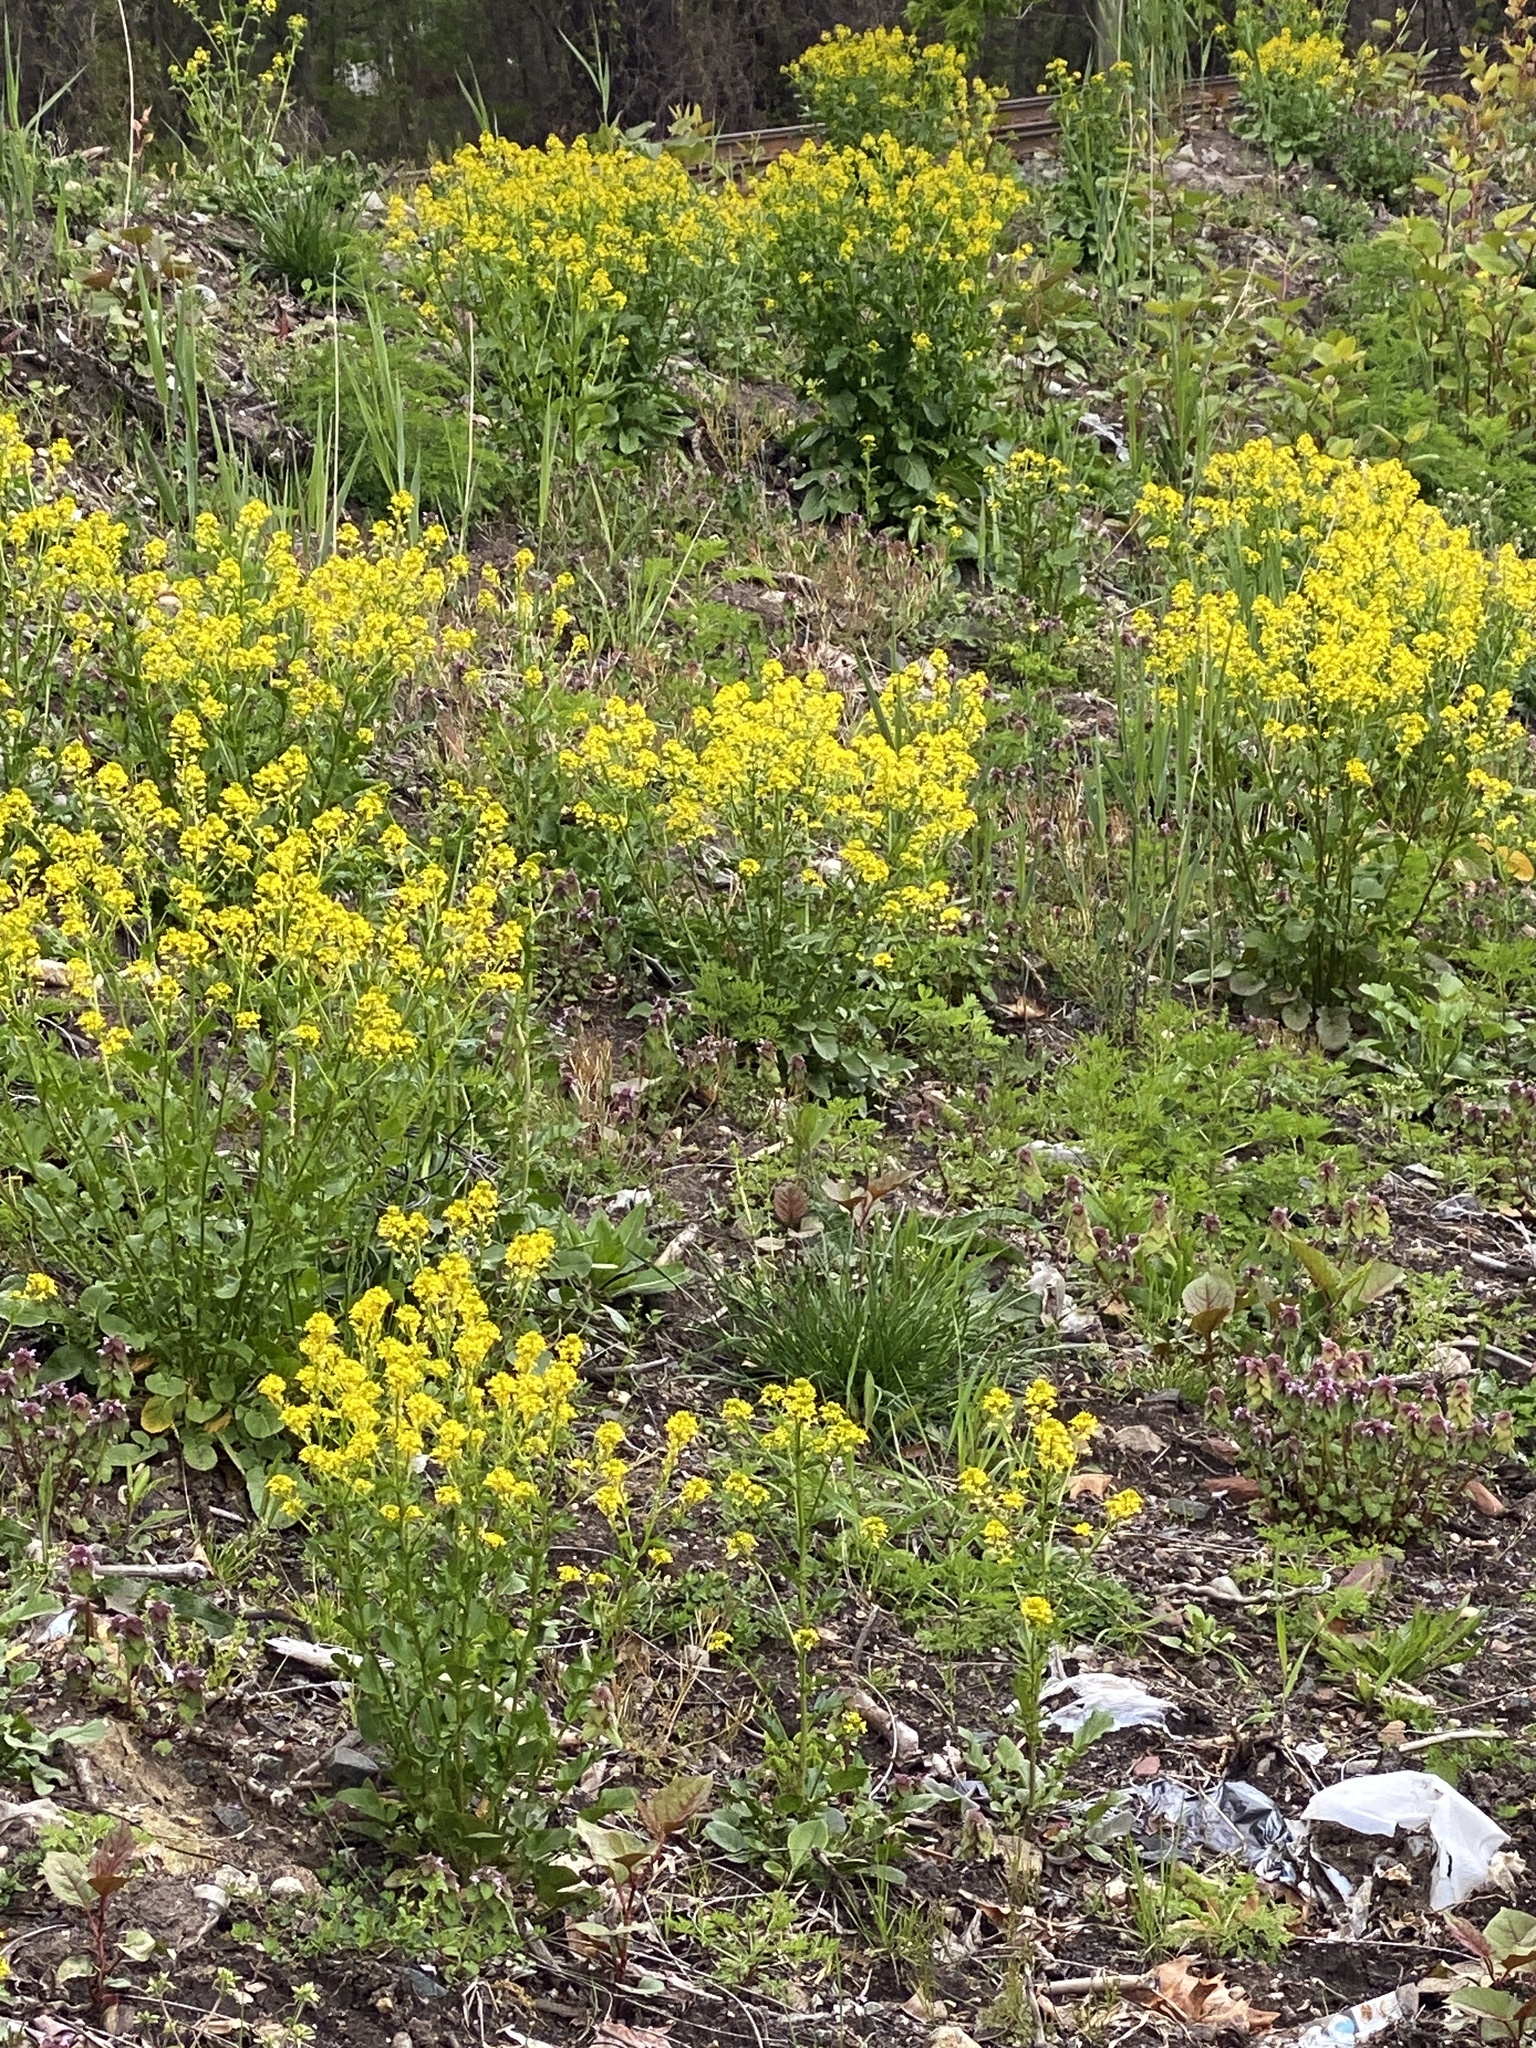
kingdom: Plantae
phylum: Tracheophyta
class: Magnoliopsida
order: Brassicales
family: Brassicaceae
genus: Barbarea
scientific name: Barbarea vulgaris
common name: Cressy-greens
